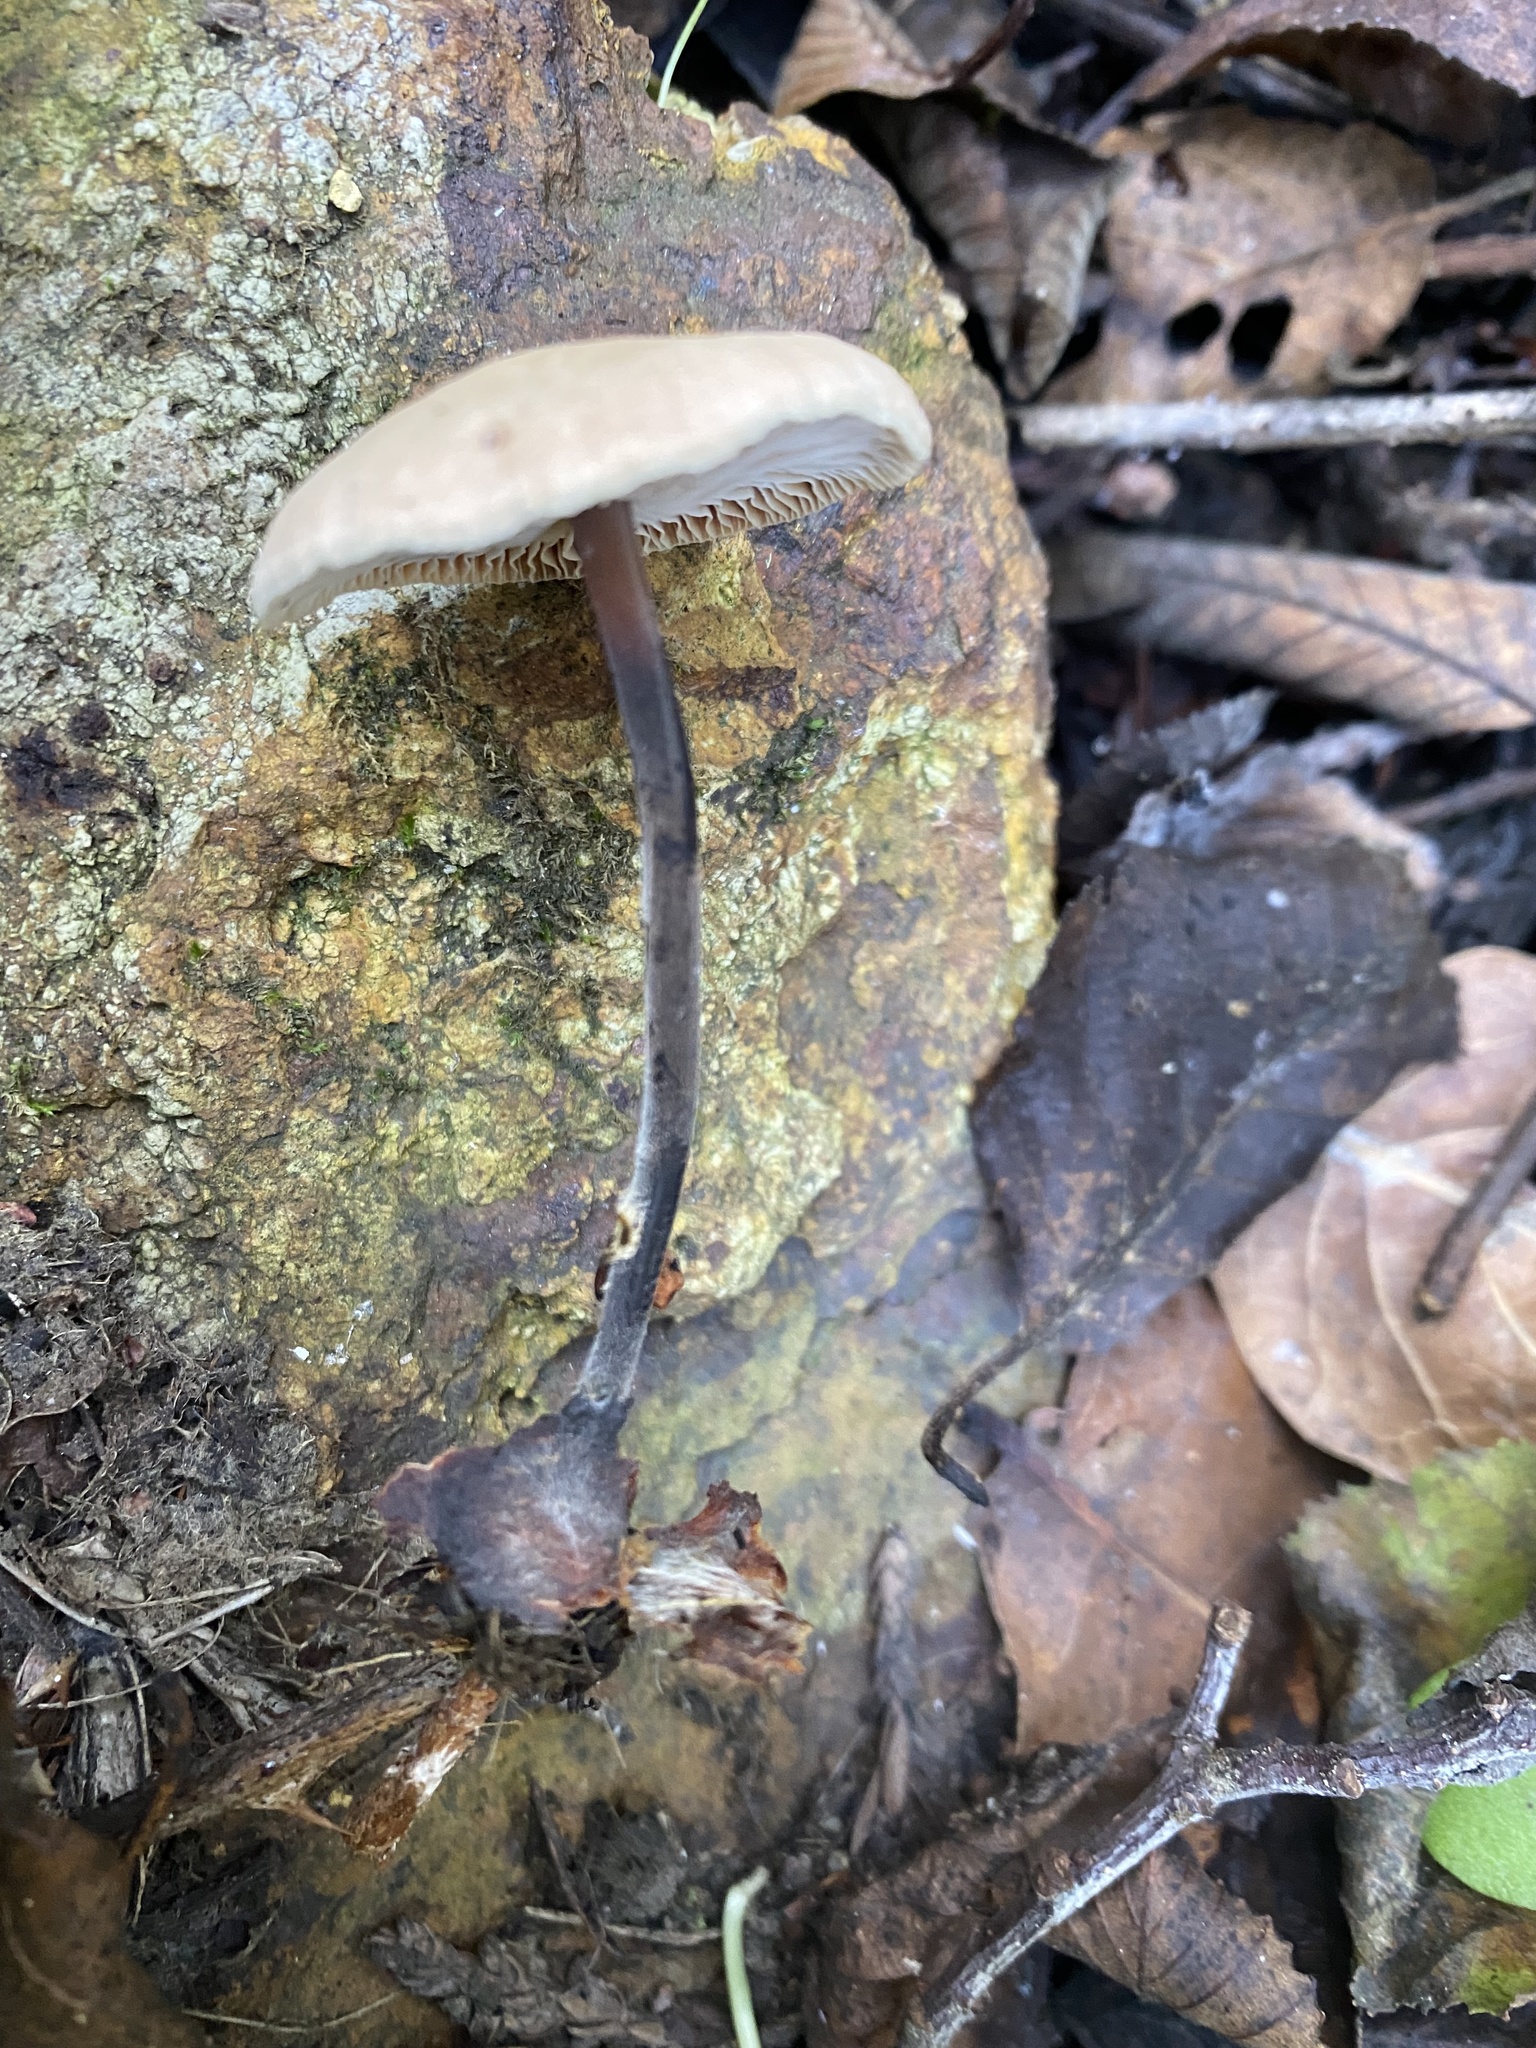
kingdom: Fungi
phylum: Basidiomycota
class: Agaricomycetes
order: Agaricales
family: Omphalotaceae
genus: Gymnopus
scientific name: Gymnopus brassicolens
